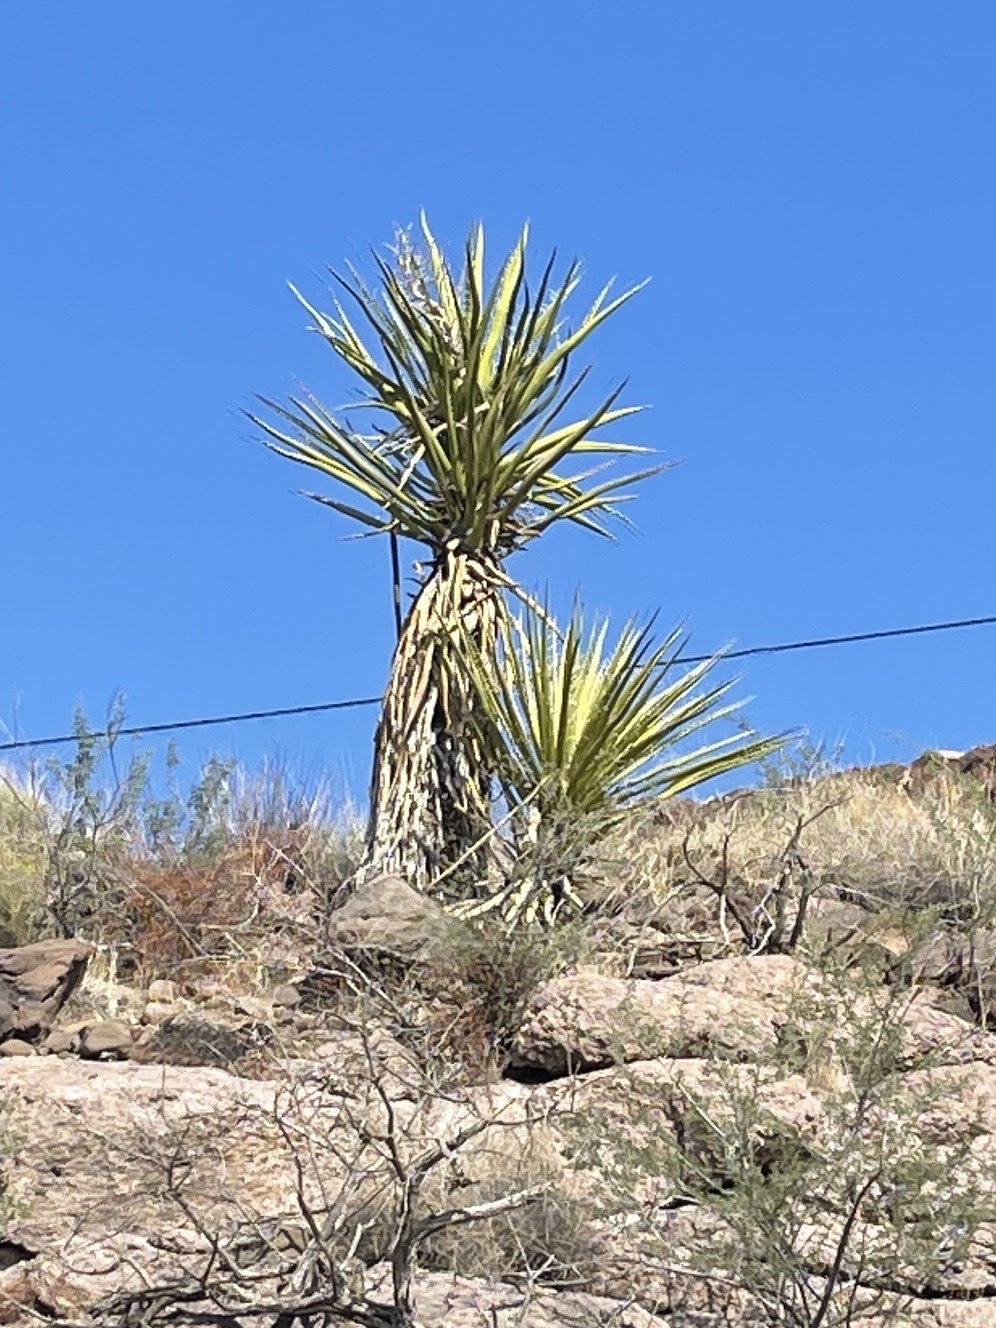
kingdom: Plantae
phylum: Tracheophyta
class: Liliopsida
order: Asparagales
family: Asparagaceae
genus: Yucca
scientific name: Yucca schidigera
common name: Mojave yucca
